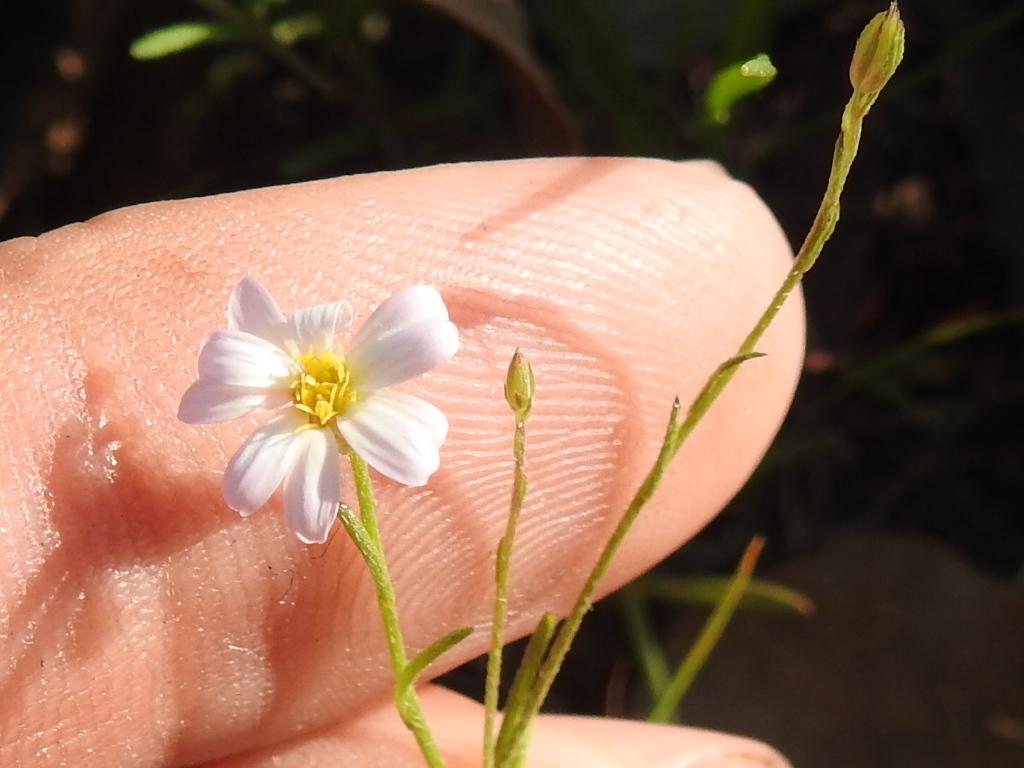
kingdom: Plantae
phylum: Tracheophyta
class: Magnoliopsida
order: Asterales
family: Asteraceae
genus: Chaetopappa
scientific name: Chaetopappa asteroides
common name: Tiny lazy daisy
